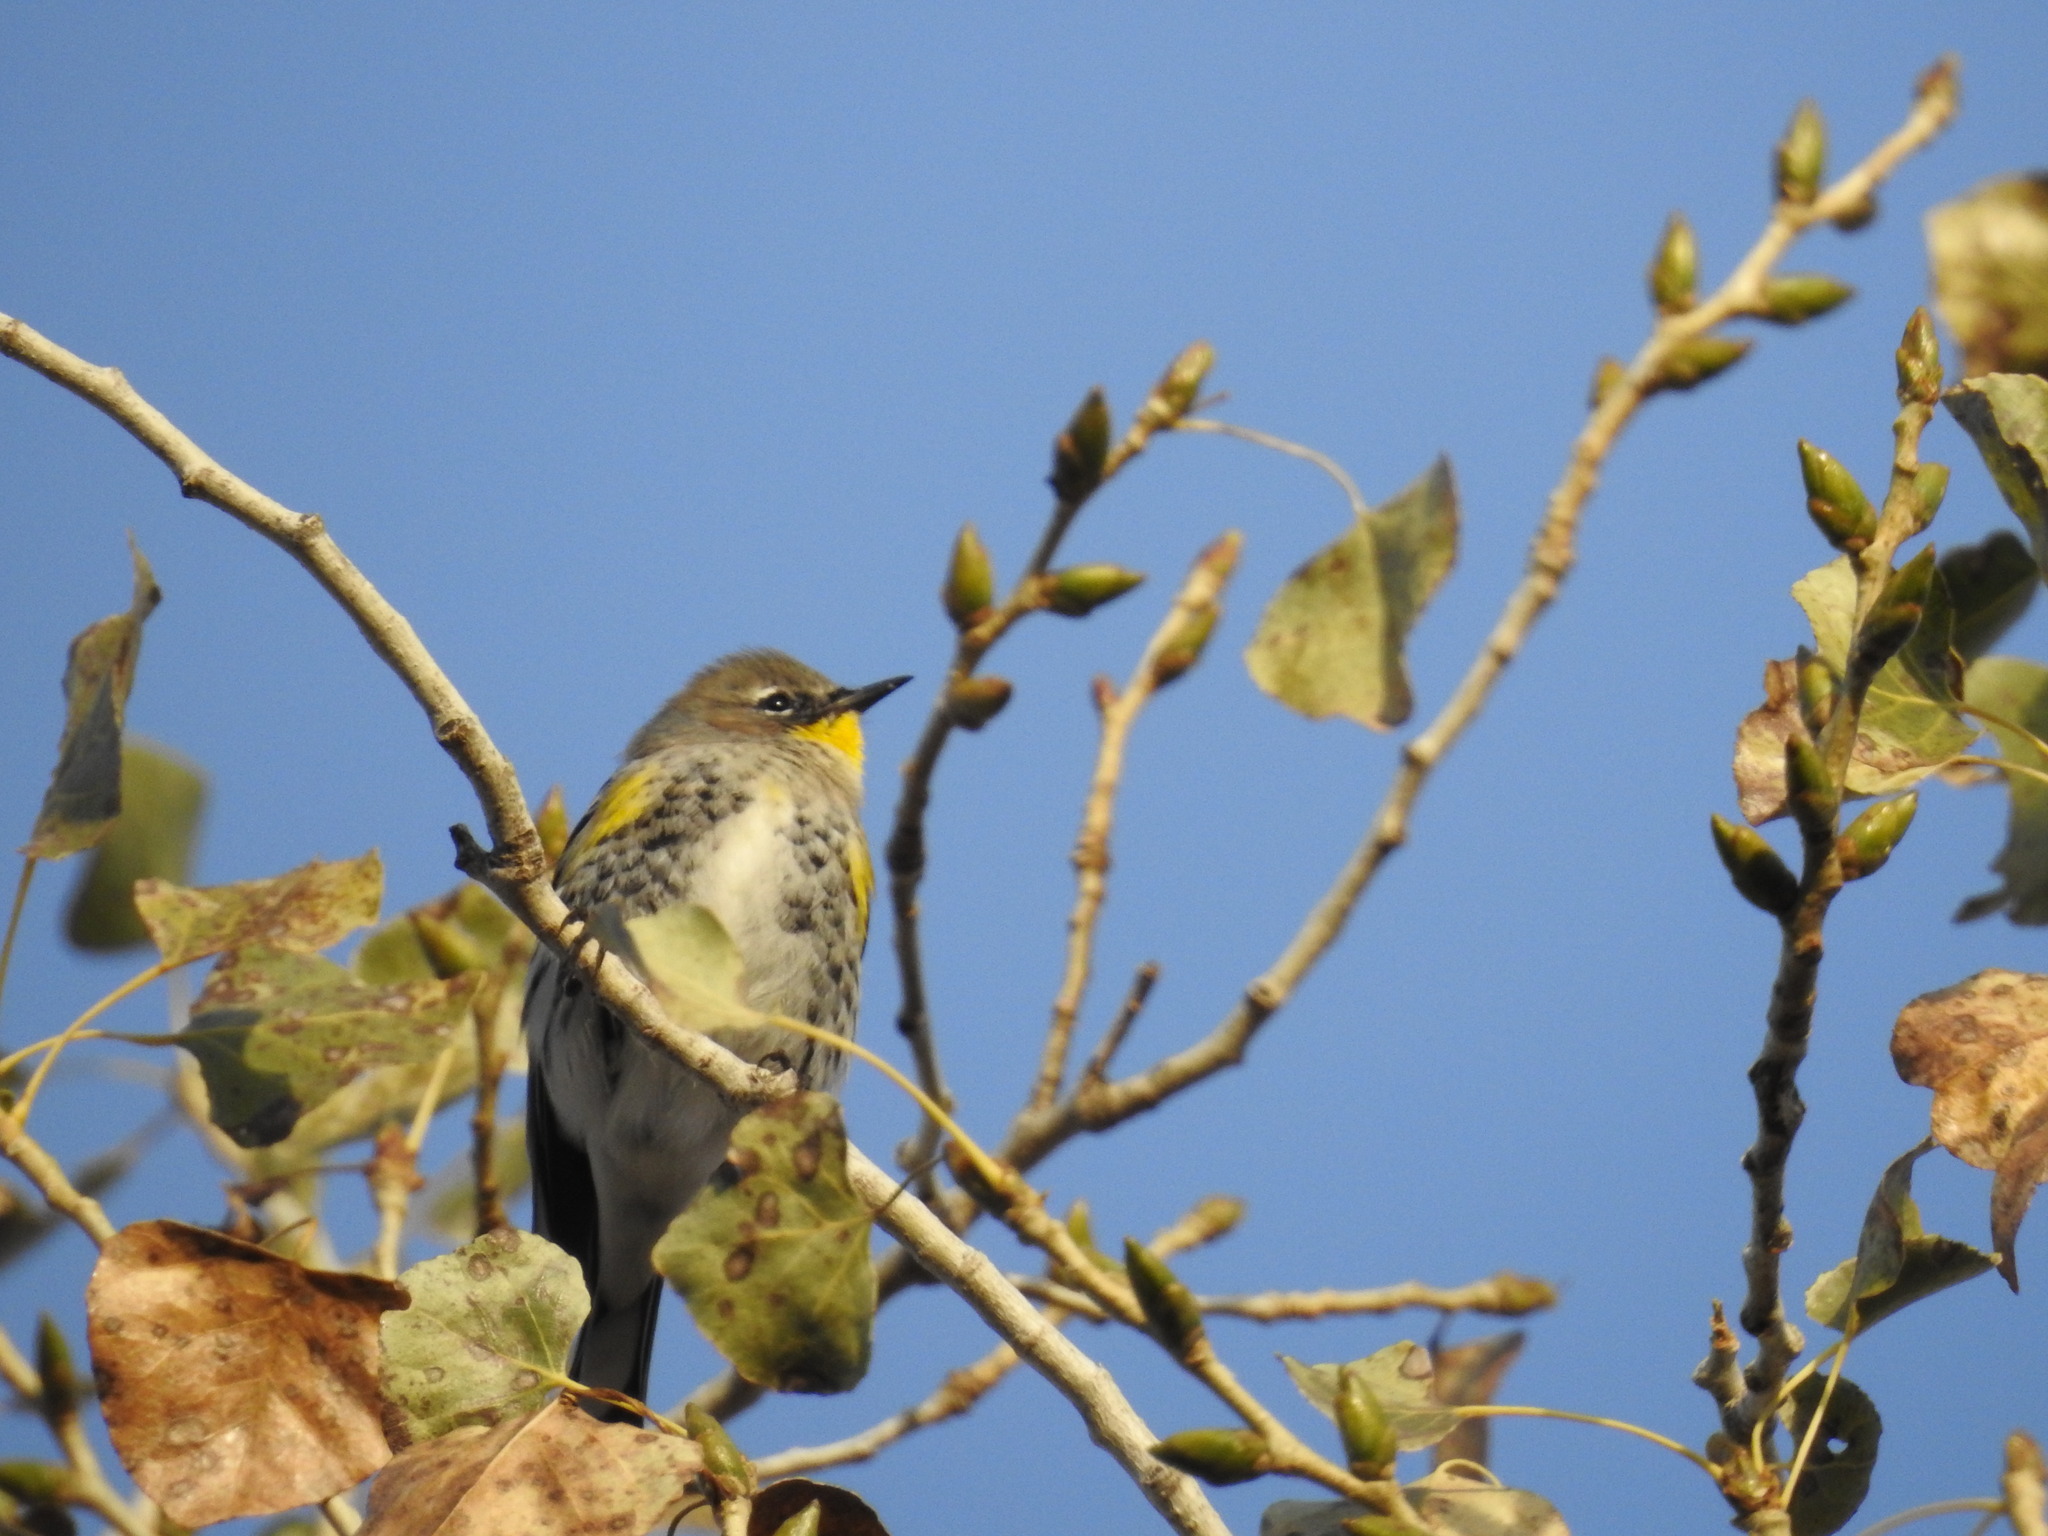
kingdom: Animalia
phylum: Chordata
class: Aves
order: Passeriformes
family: Parulidae
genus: Setophaga
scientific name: Setophaga coronata
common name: Myrtle warbler
